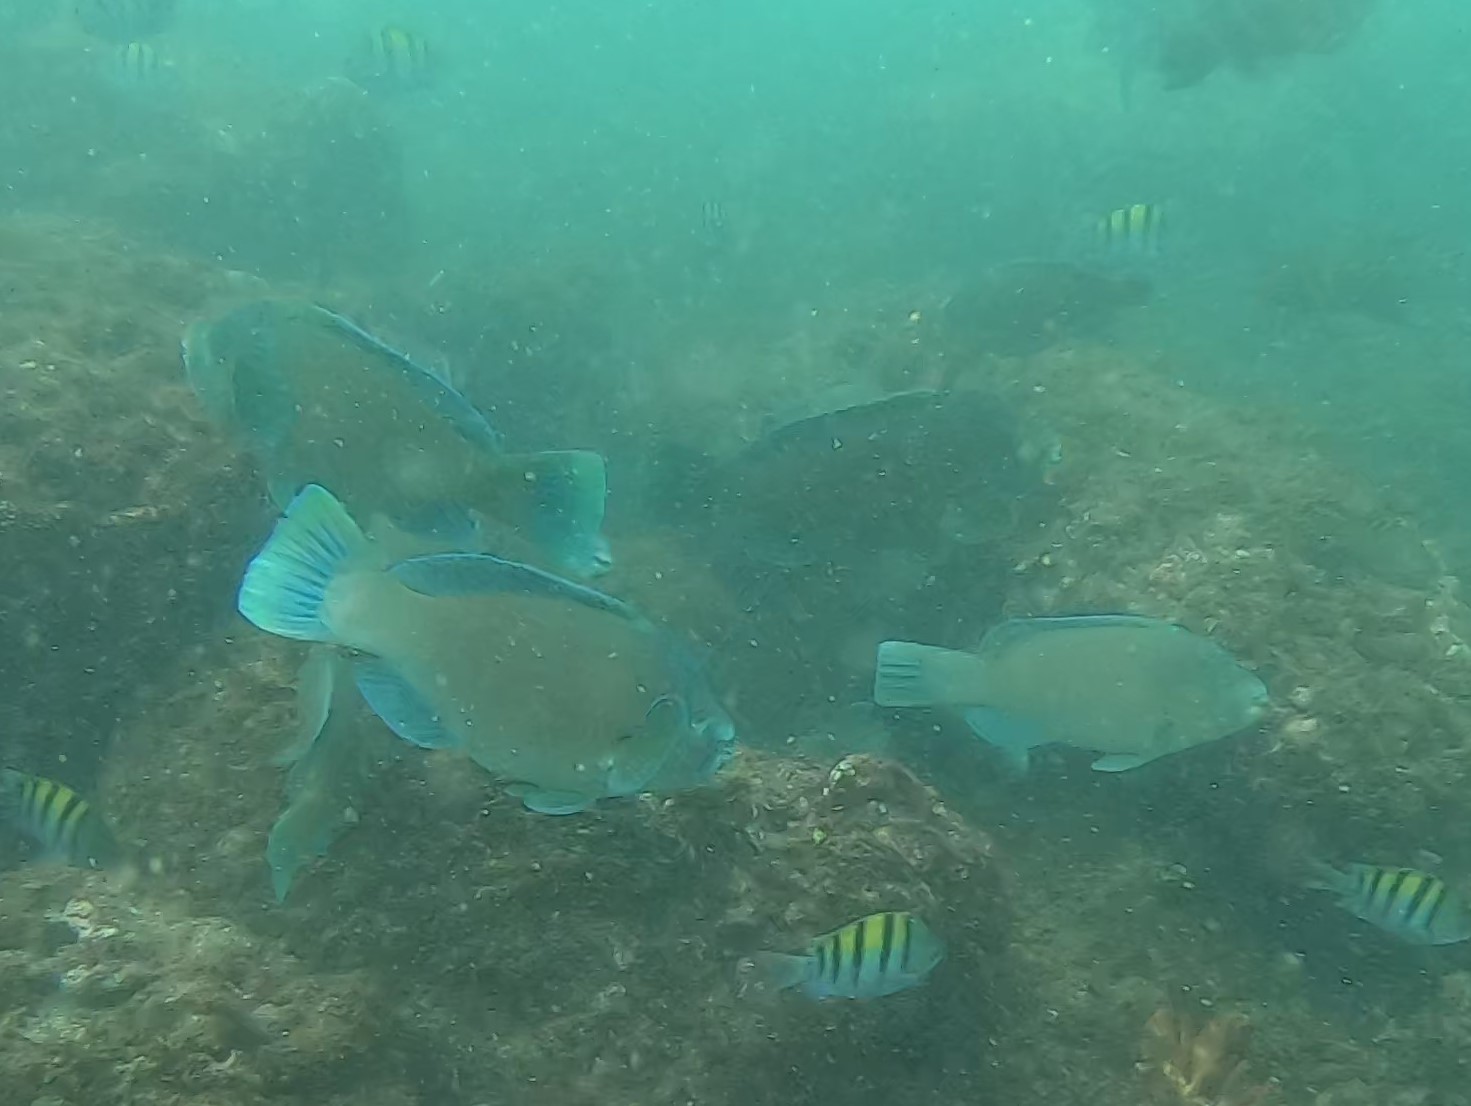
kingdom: Animalia
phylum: Chordata
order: Perciformes
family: Scaridae
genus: Scarus
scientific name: Scarus perrico
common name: Bumphead parrotfish
